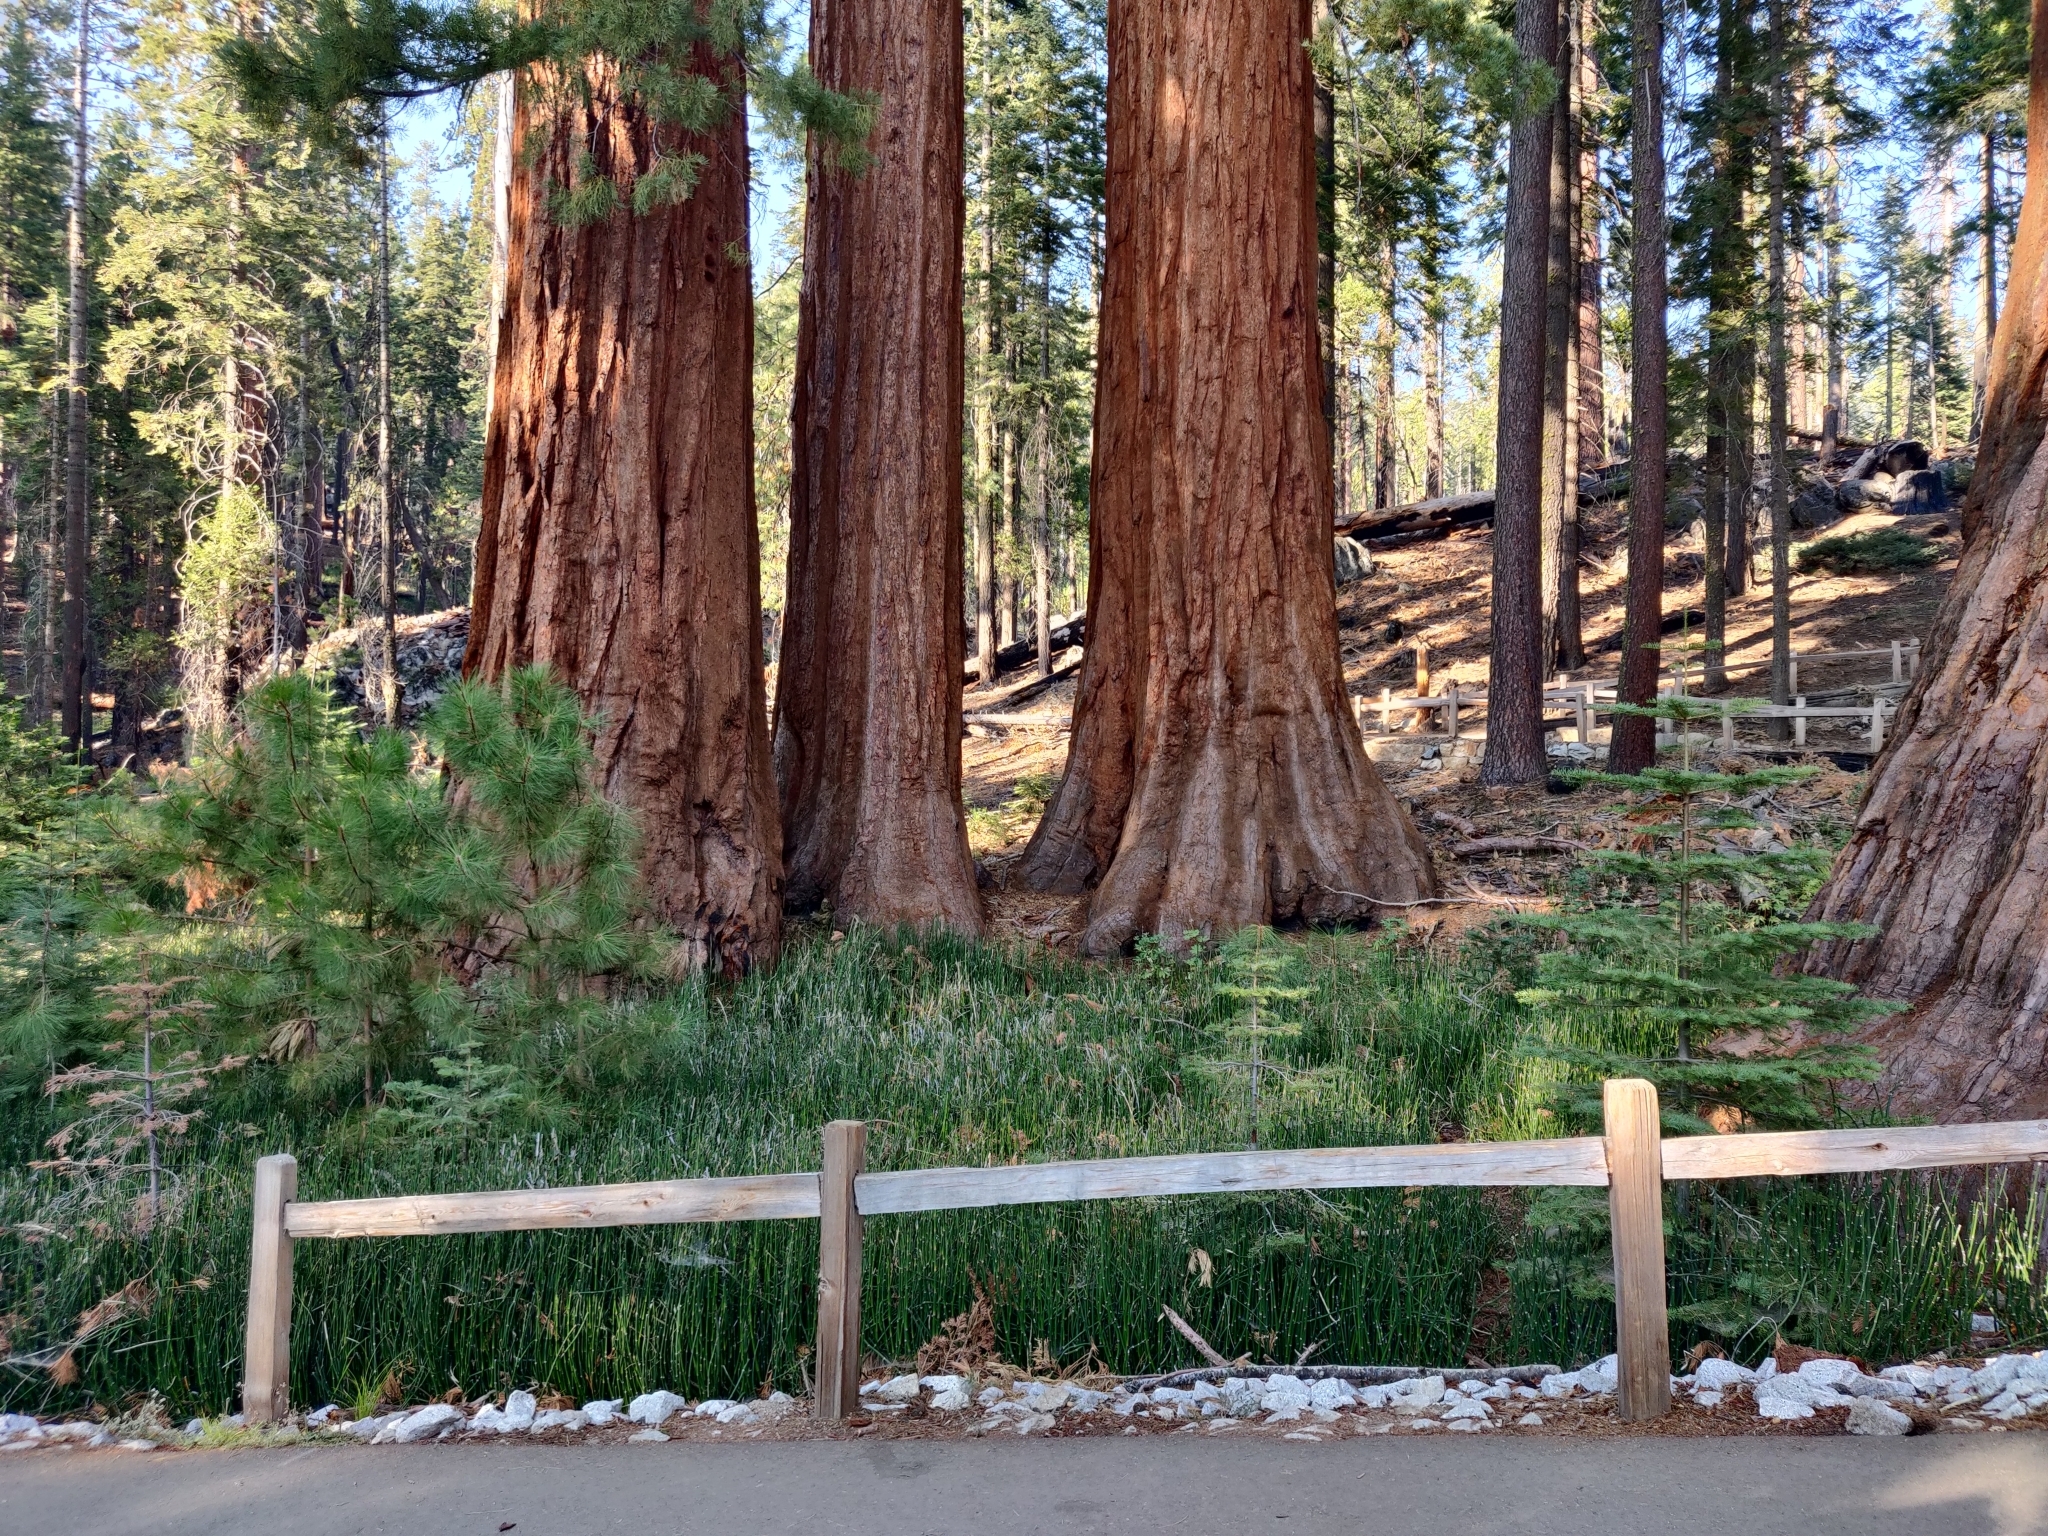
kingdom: Plantae
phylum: Tracheophyta
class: Pinopsida
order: Pinales
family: Cupressaceae
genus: Sequoiadendron
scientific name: Sequoiadendron giganteum
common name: Wellingtonia
